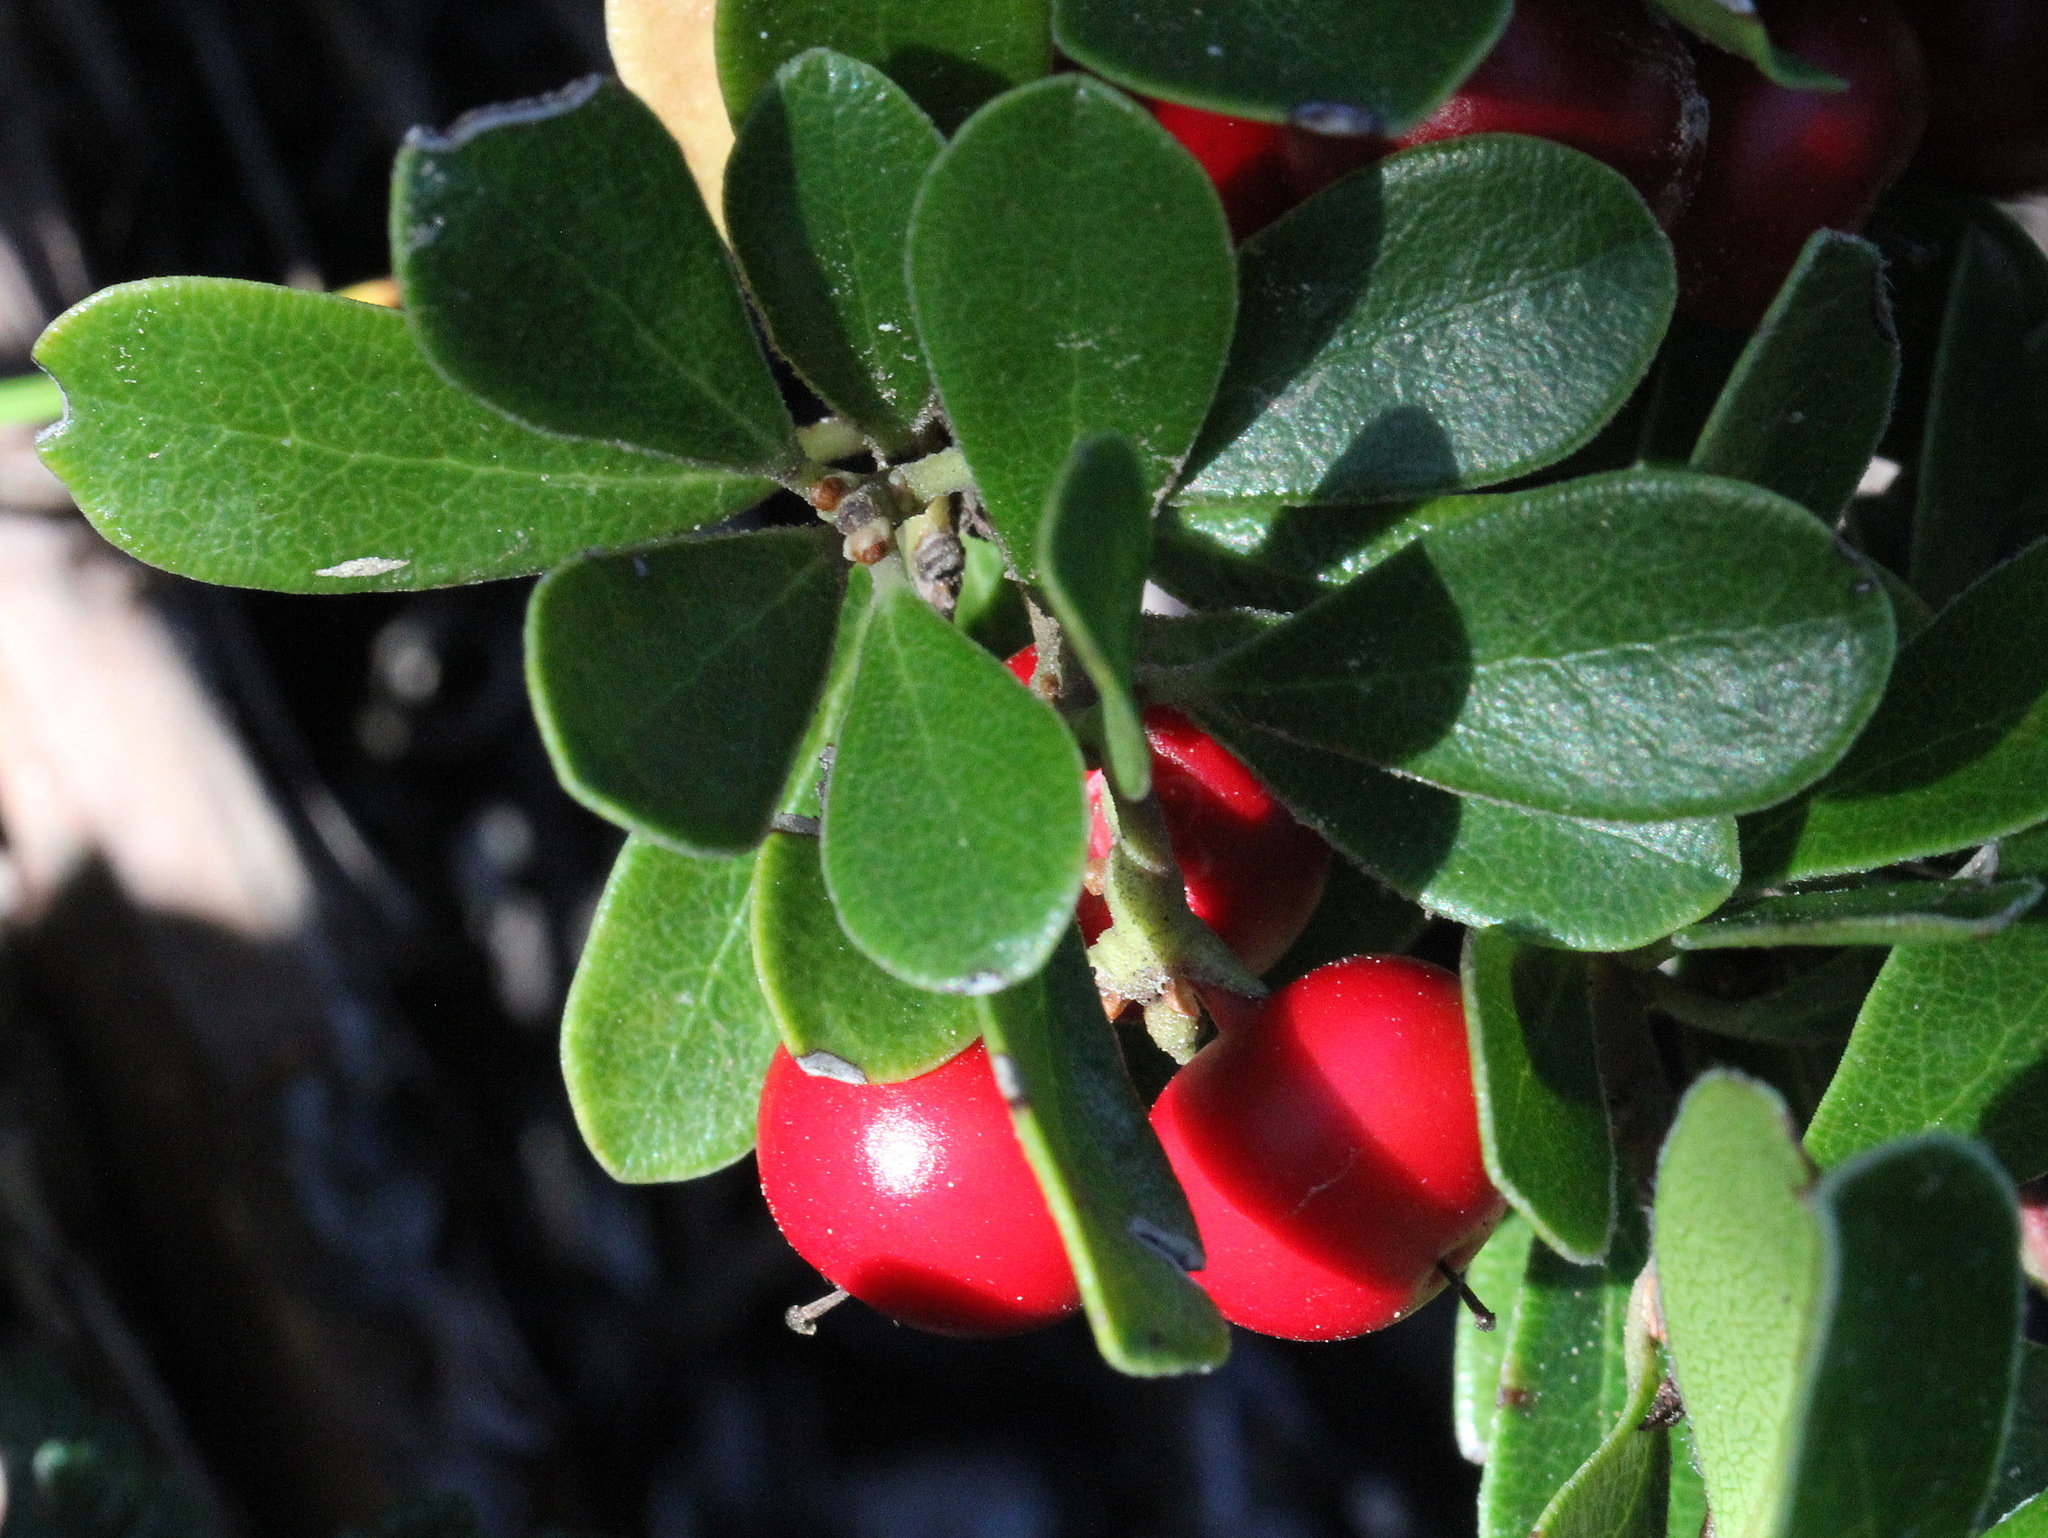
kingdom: Plantae
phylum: Tracheophyta
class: Magnoliopsida
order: Ericales
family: Ericaceae
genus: Arctostaphylos
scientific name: Arctostaphylos uva-ursi
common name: Bearberry
